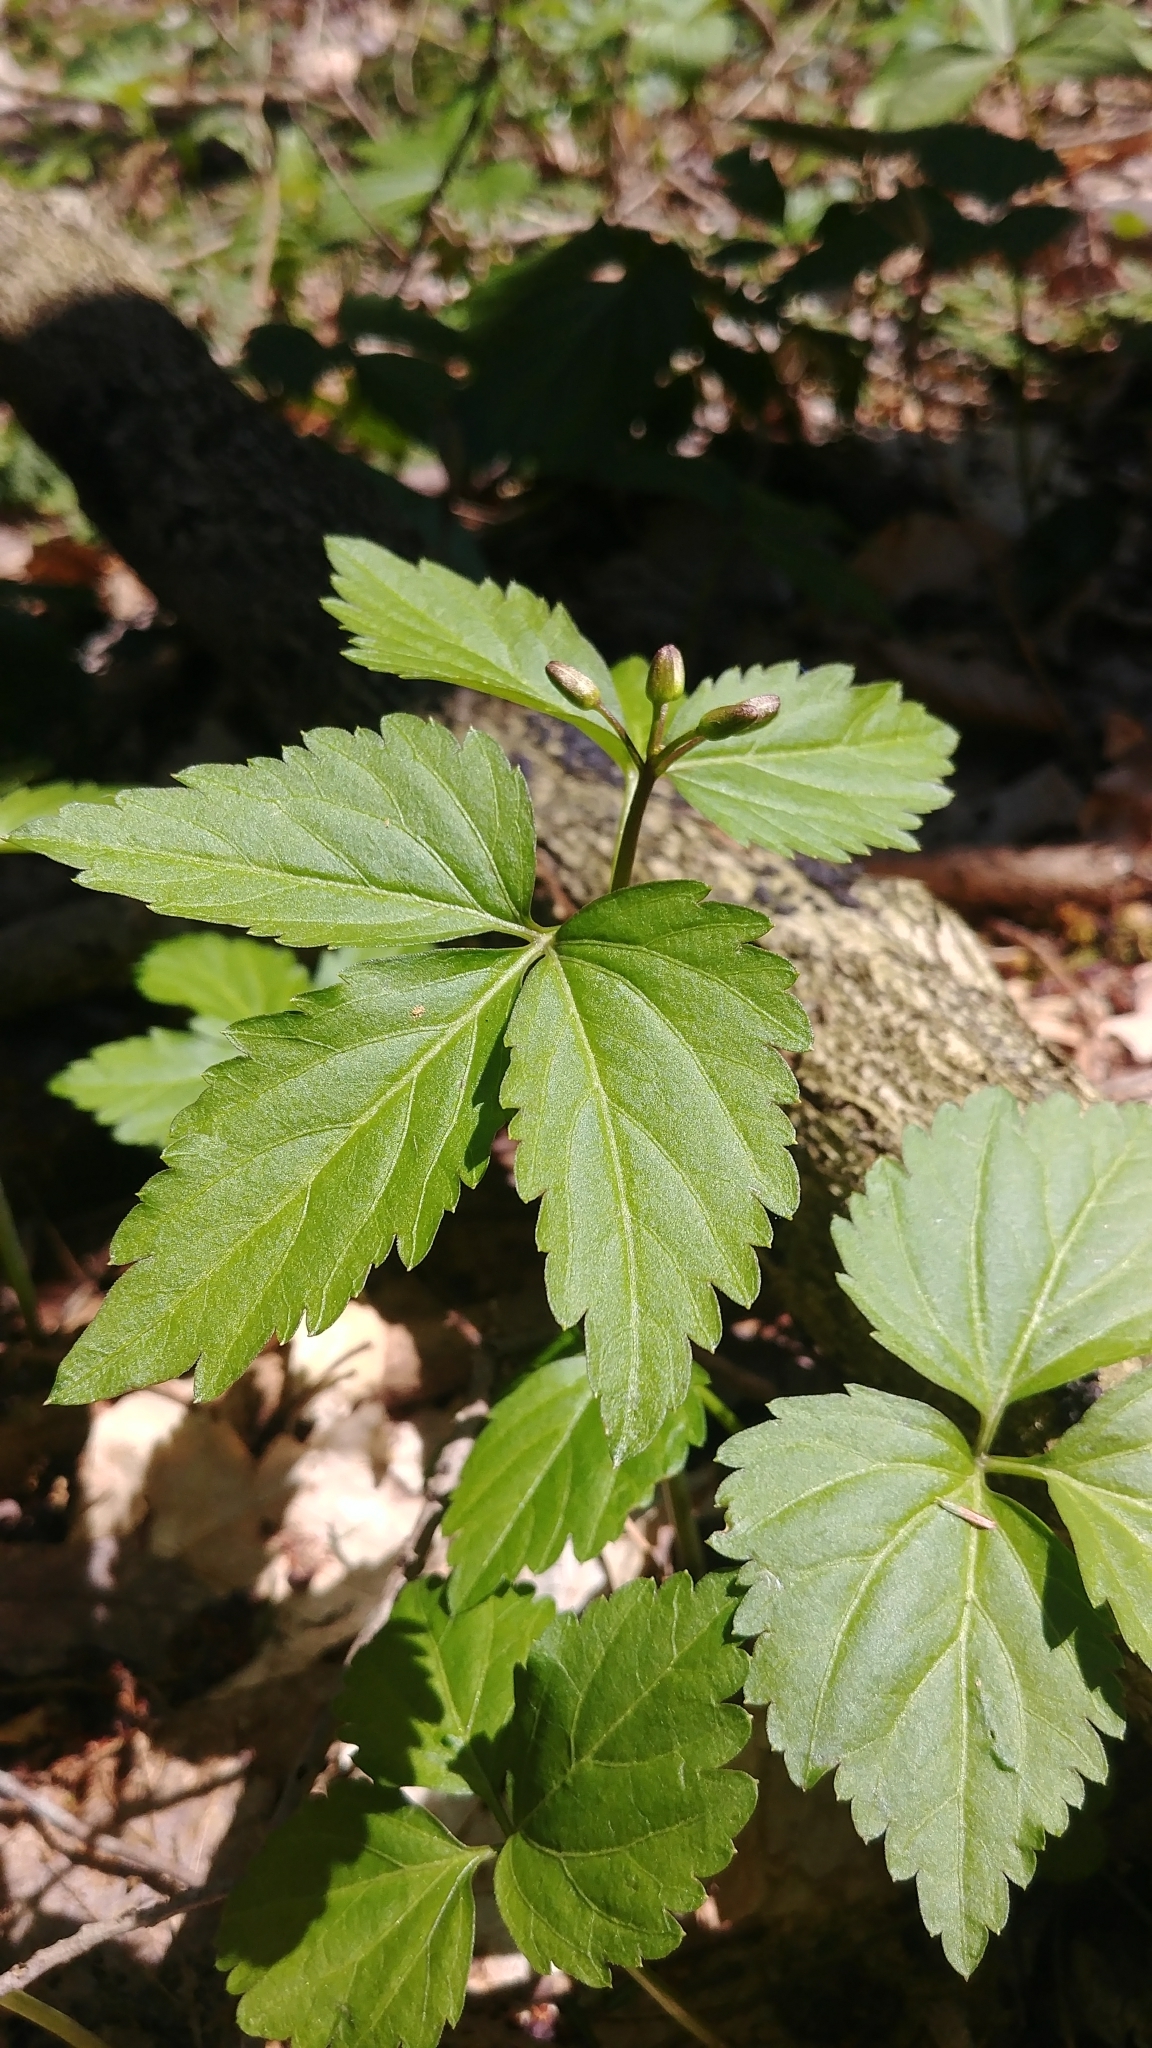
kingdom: Plantae
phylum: Tracheophyta
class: Magnoliopsida
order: Brassicales
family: Brassicaceae
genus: Cardamine
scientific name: Cardamine diphylla
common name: Broad-leaved toothwort
